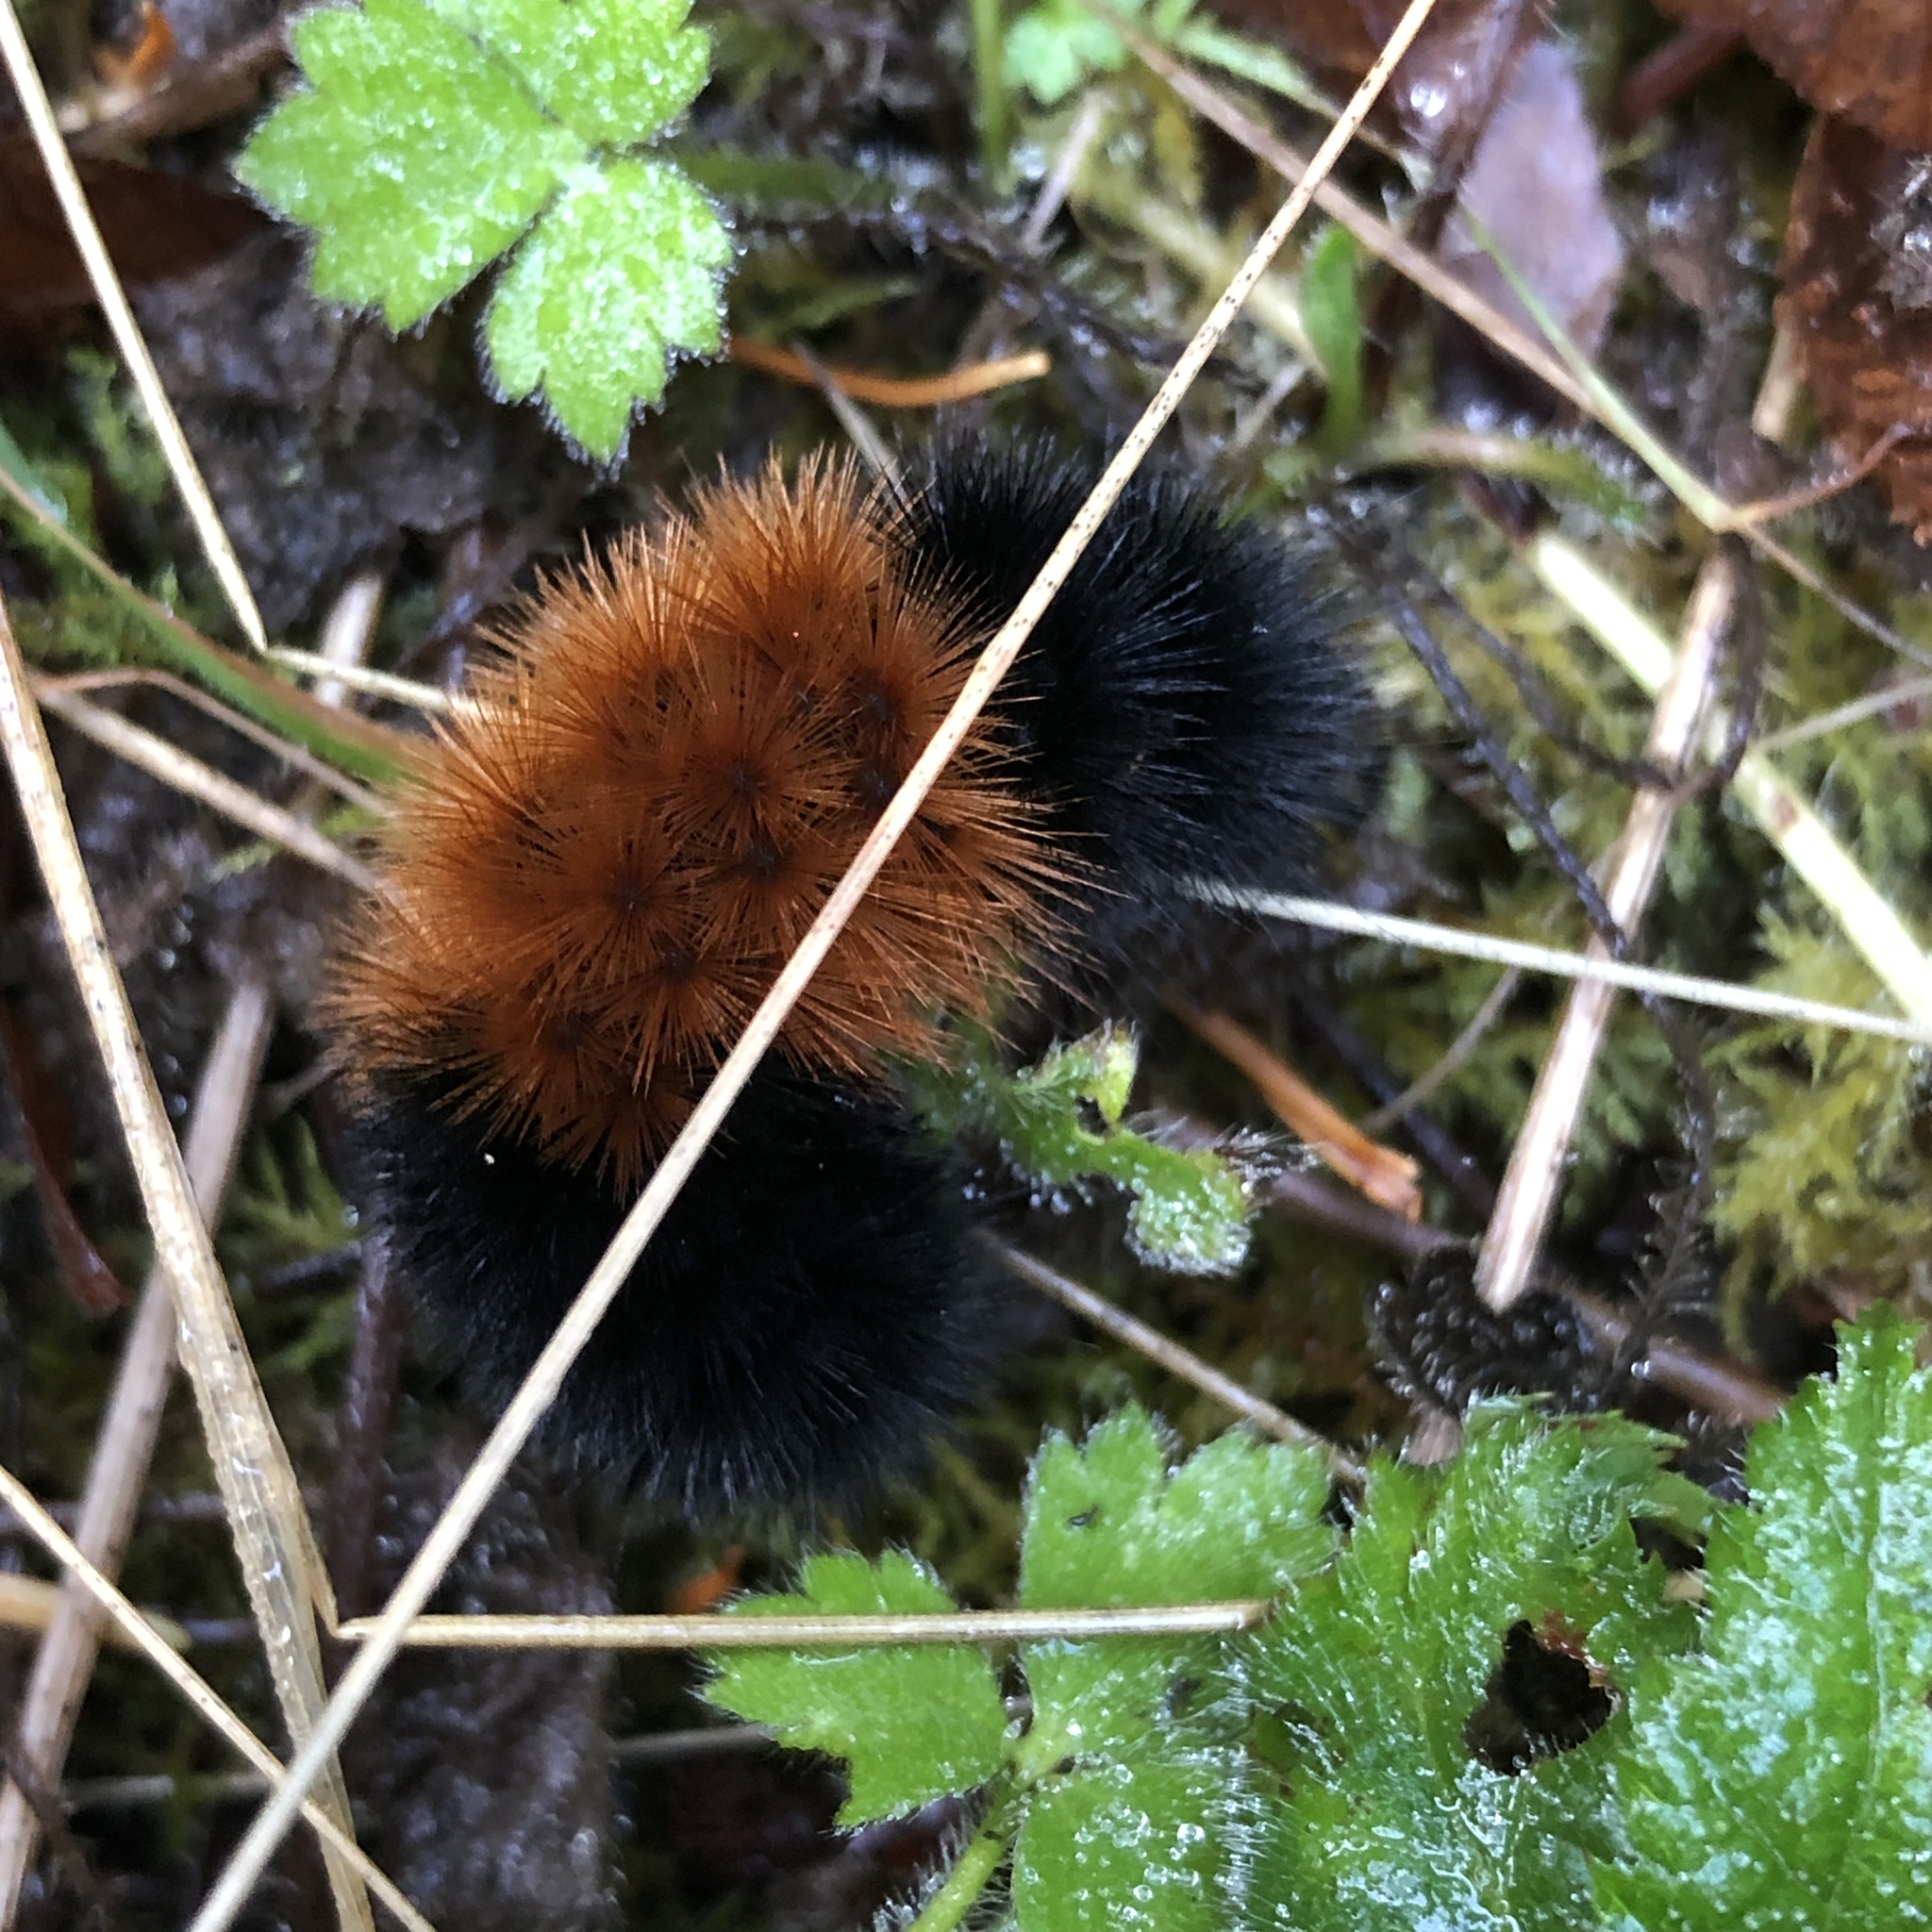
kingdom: Animalia
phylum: Arthropoda
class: Insecta
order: Lepidoptera
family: Erebidae
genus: Pyrrharctia
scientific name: Pyrrharctia isabella
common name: Isabella tiger moth
